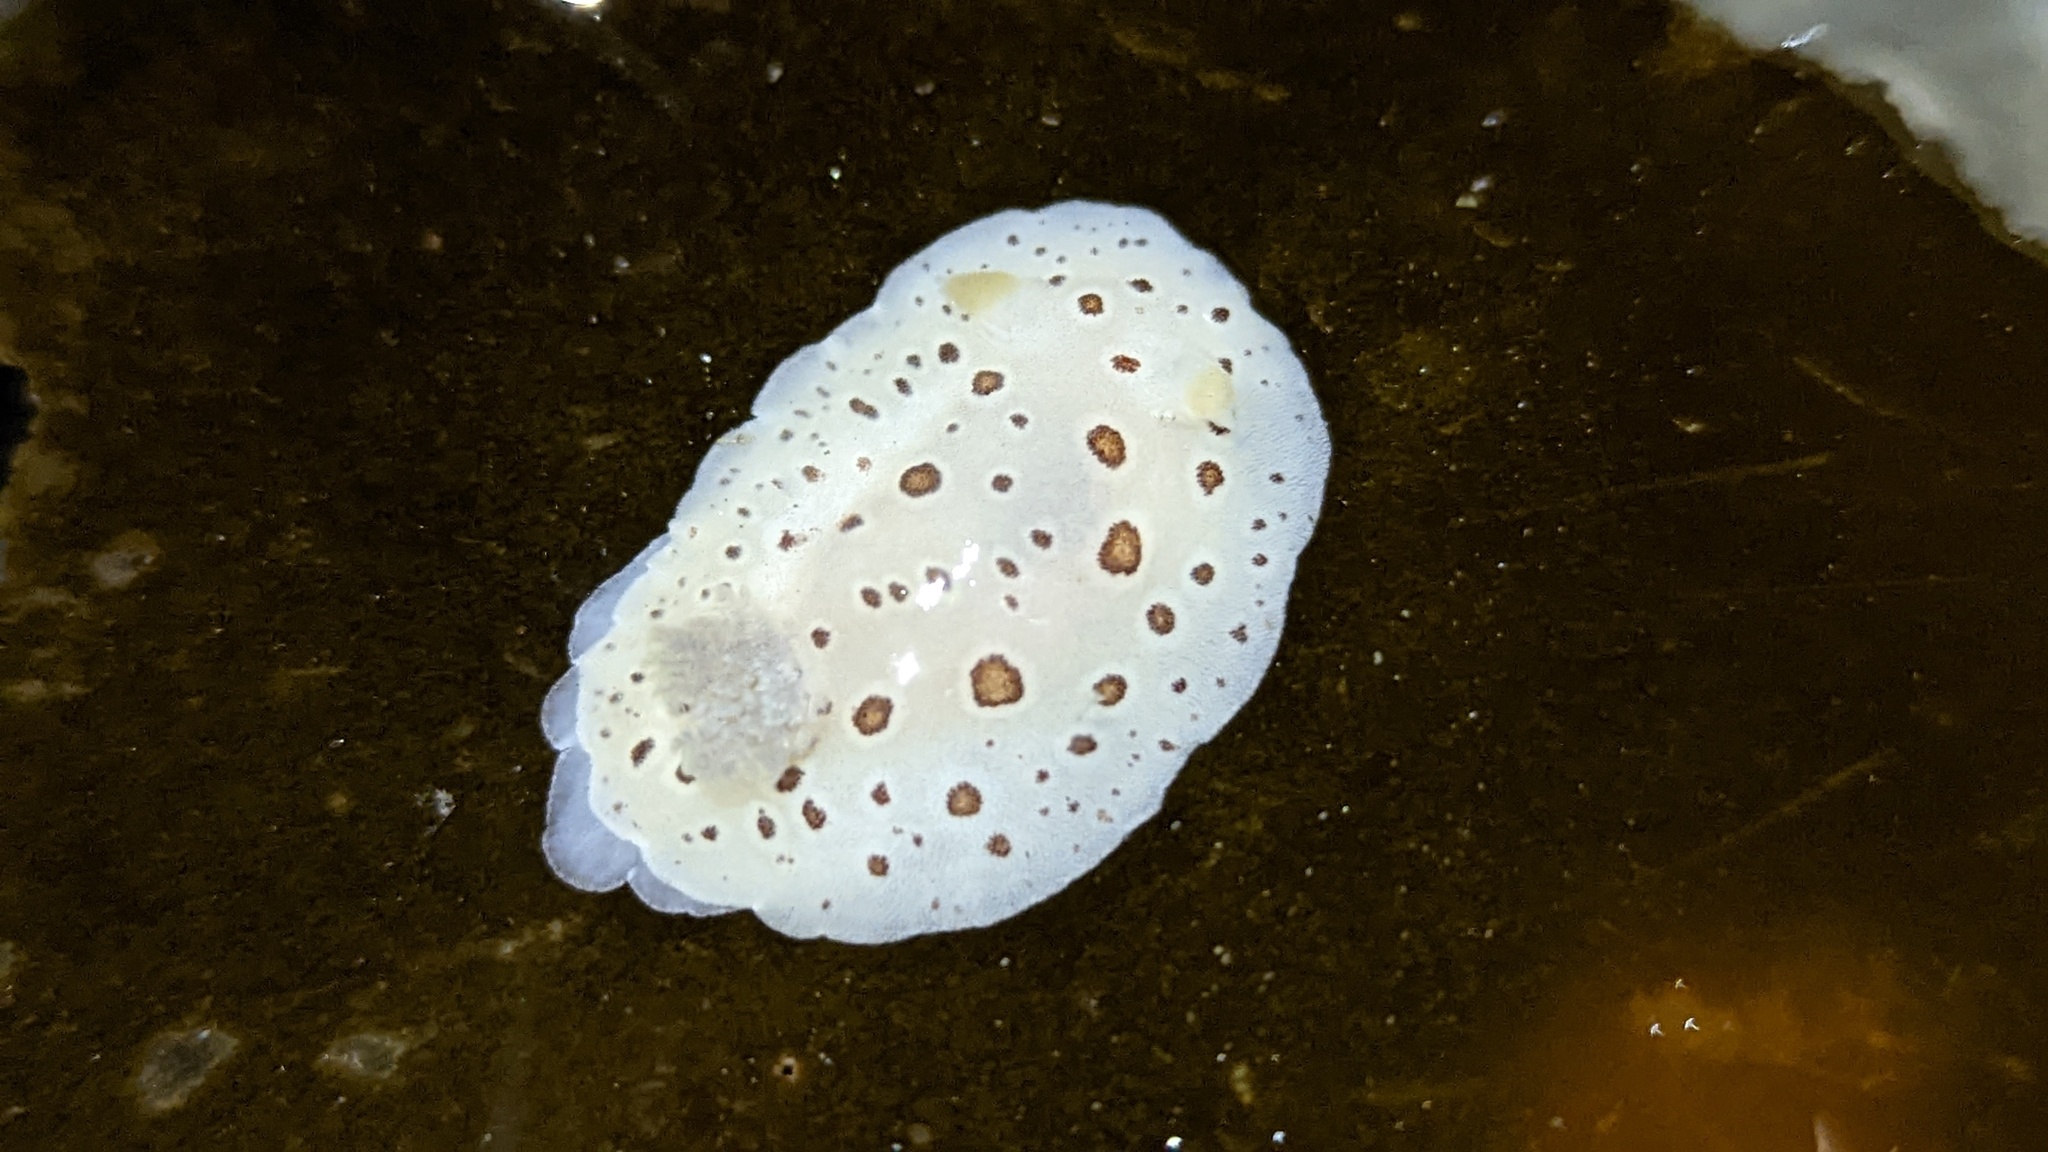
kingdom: Animalia
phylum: Mollusca
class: Gastropoda
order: Nudibranchia
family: Discodorididae
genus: Diaulula
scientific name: Diaulula odonoghuei
